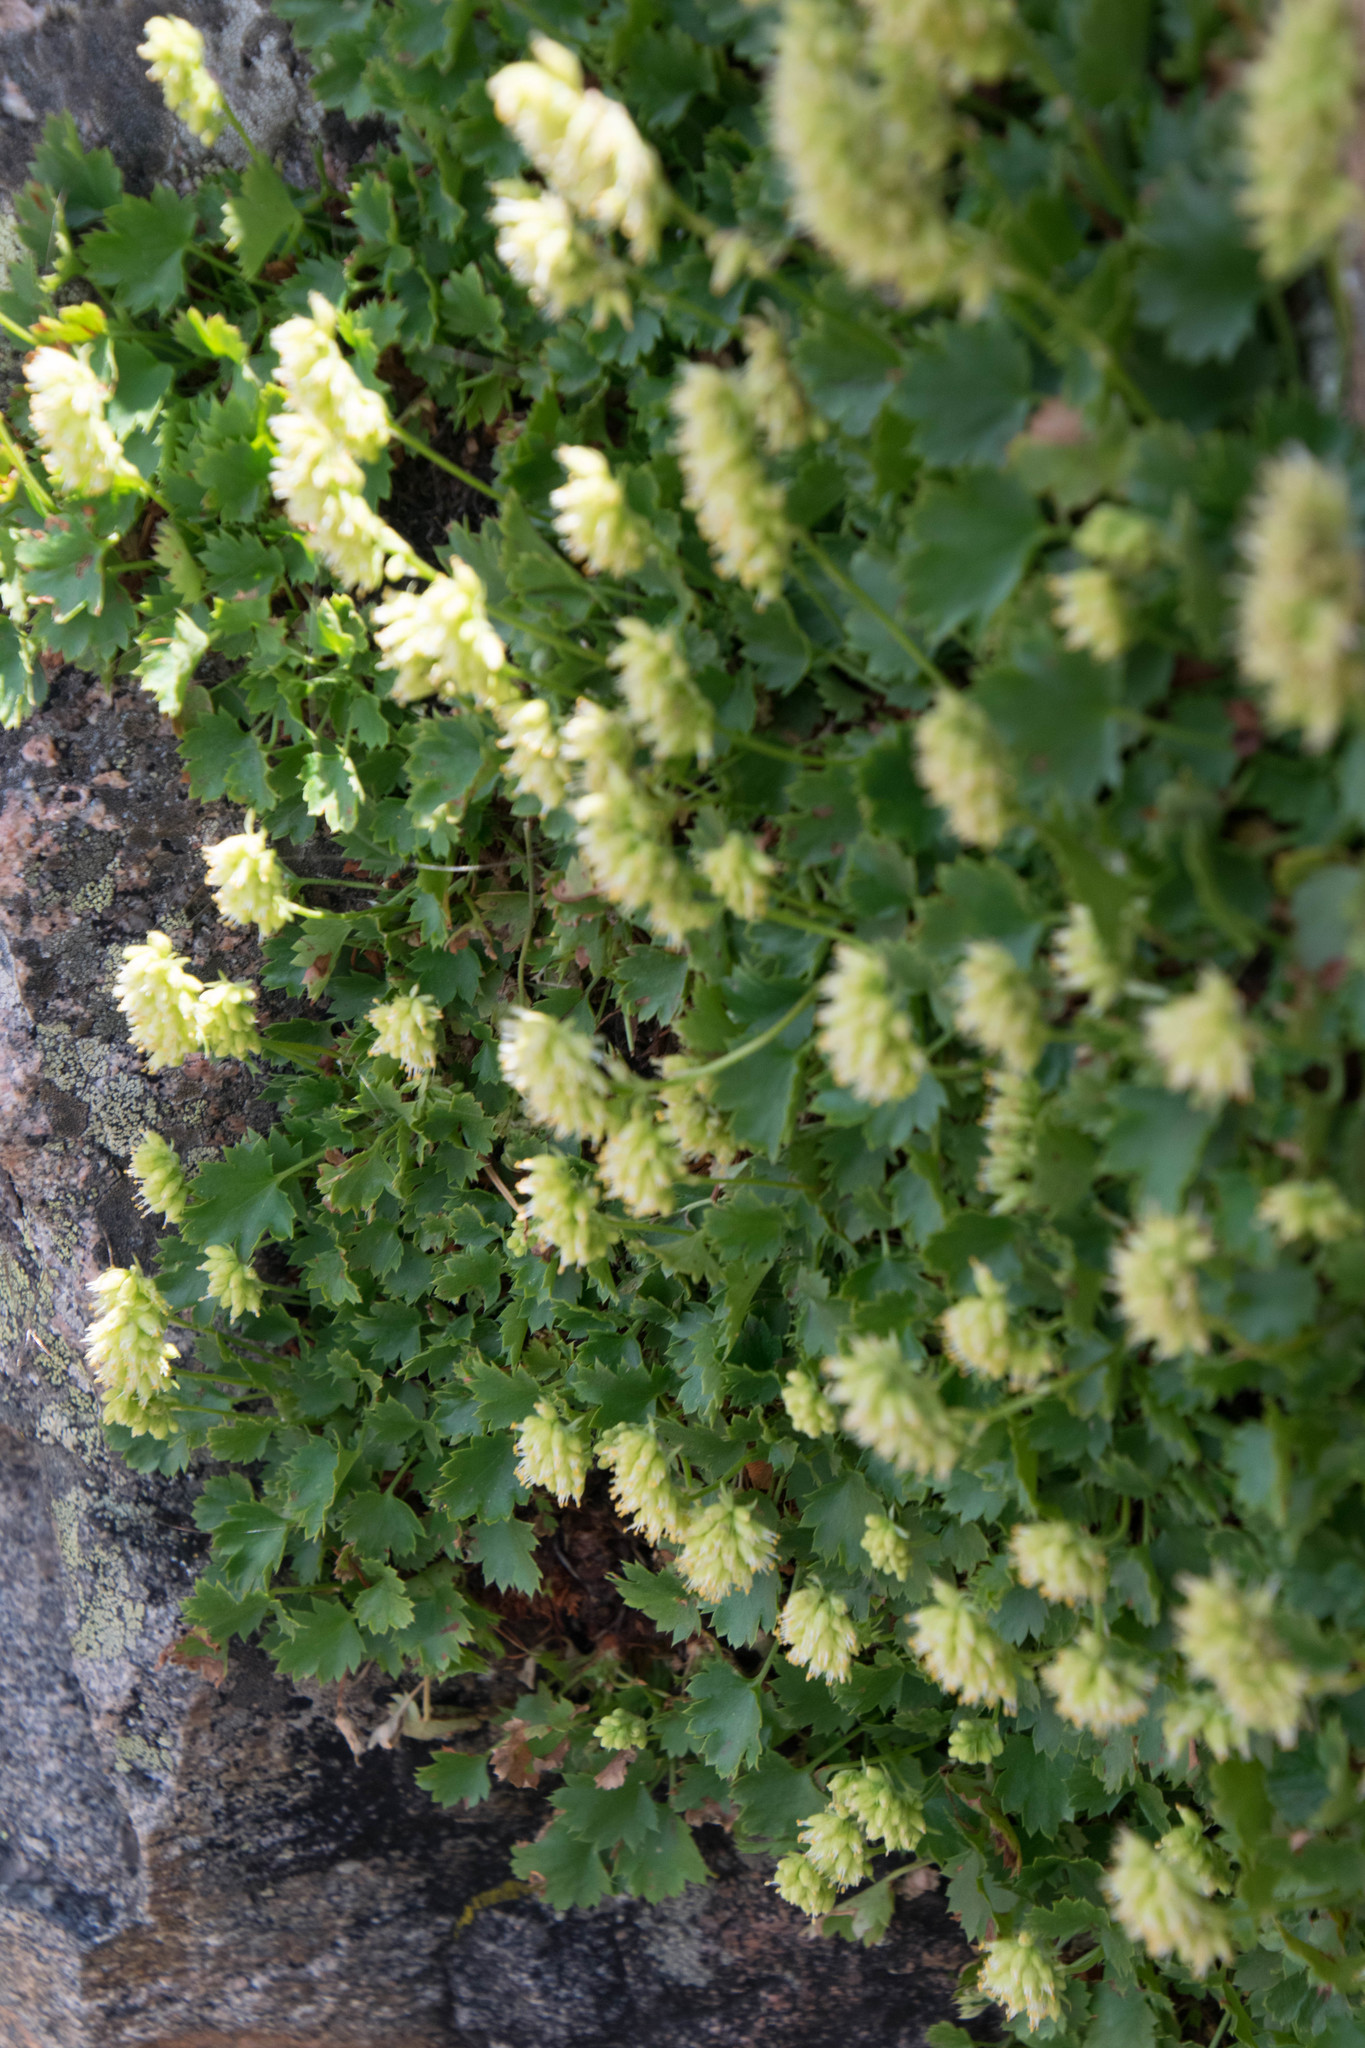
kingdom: Plantae
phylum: Tracheophyta
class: Magnoliopsida
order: Saxifragales
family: Saxifragaceae
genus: Heuchera
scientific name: Heuchera bracteata
